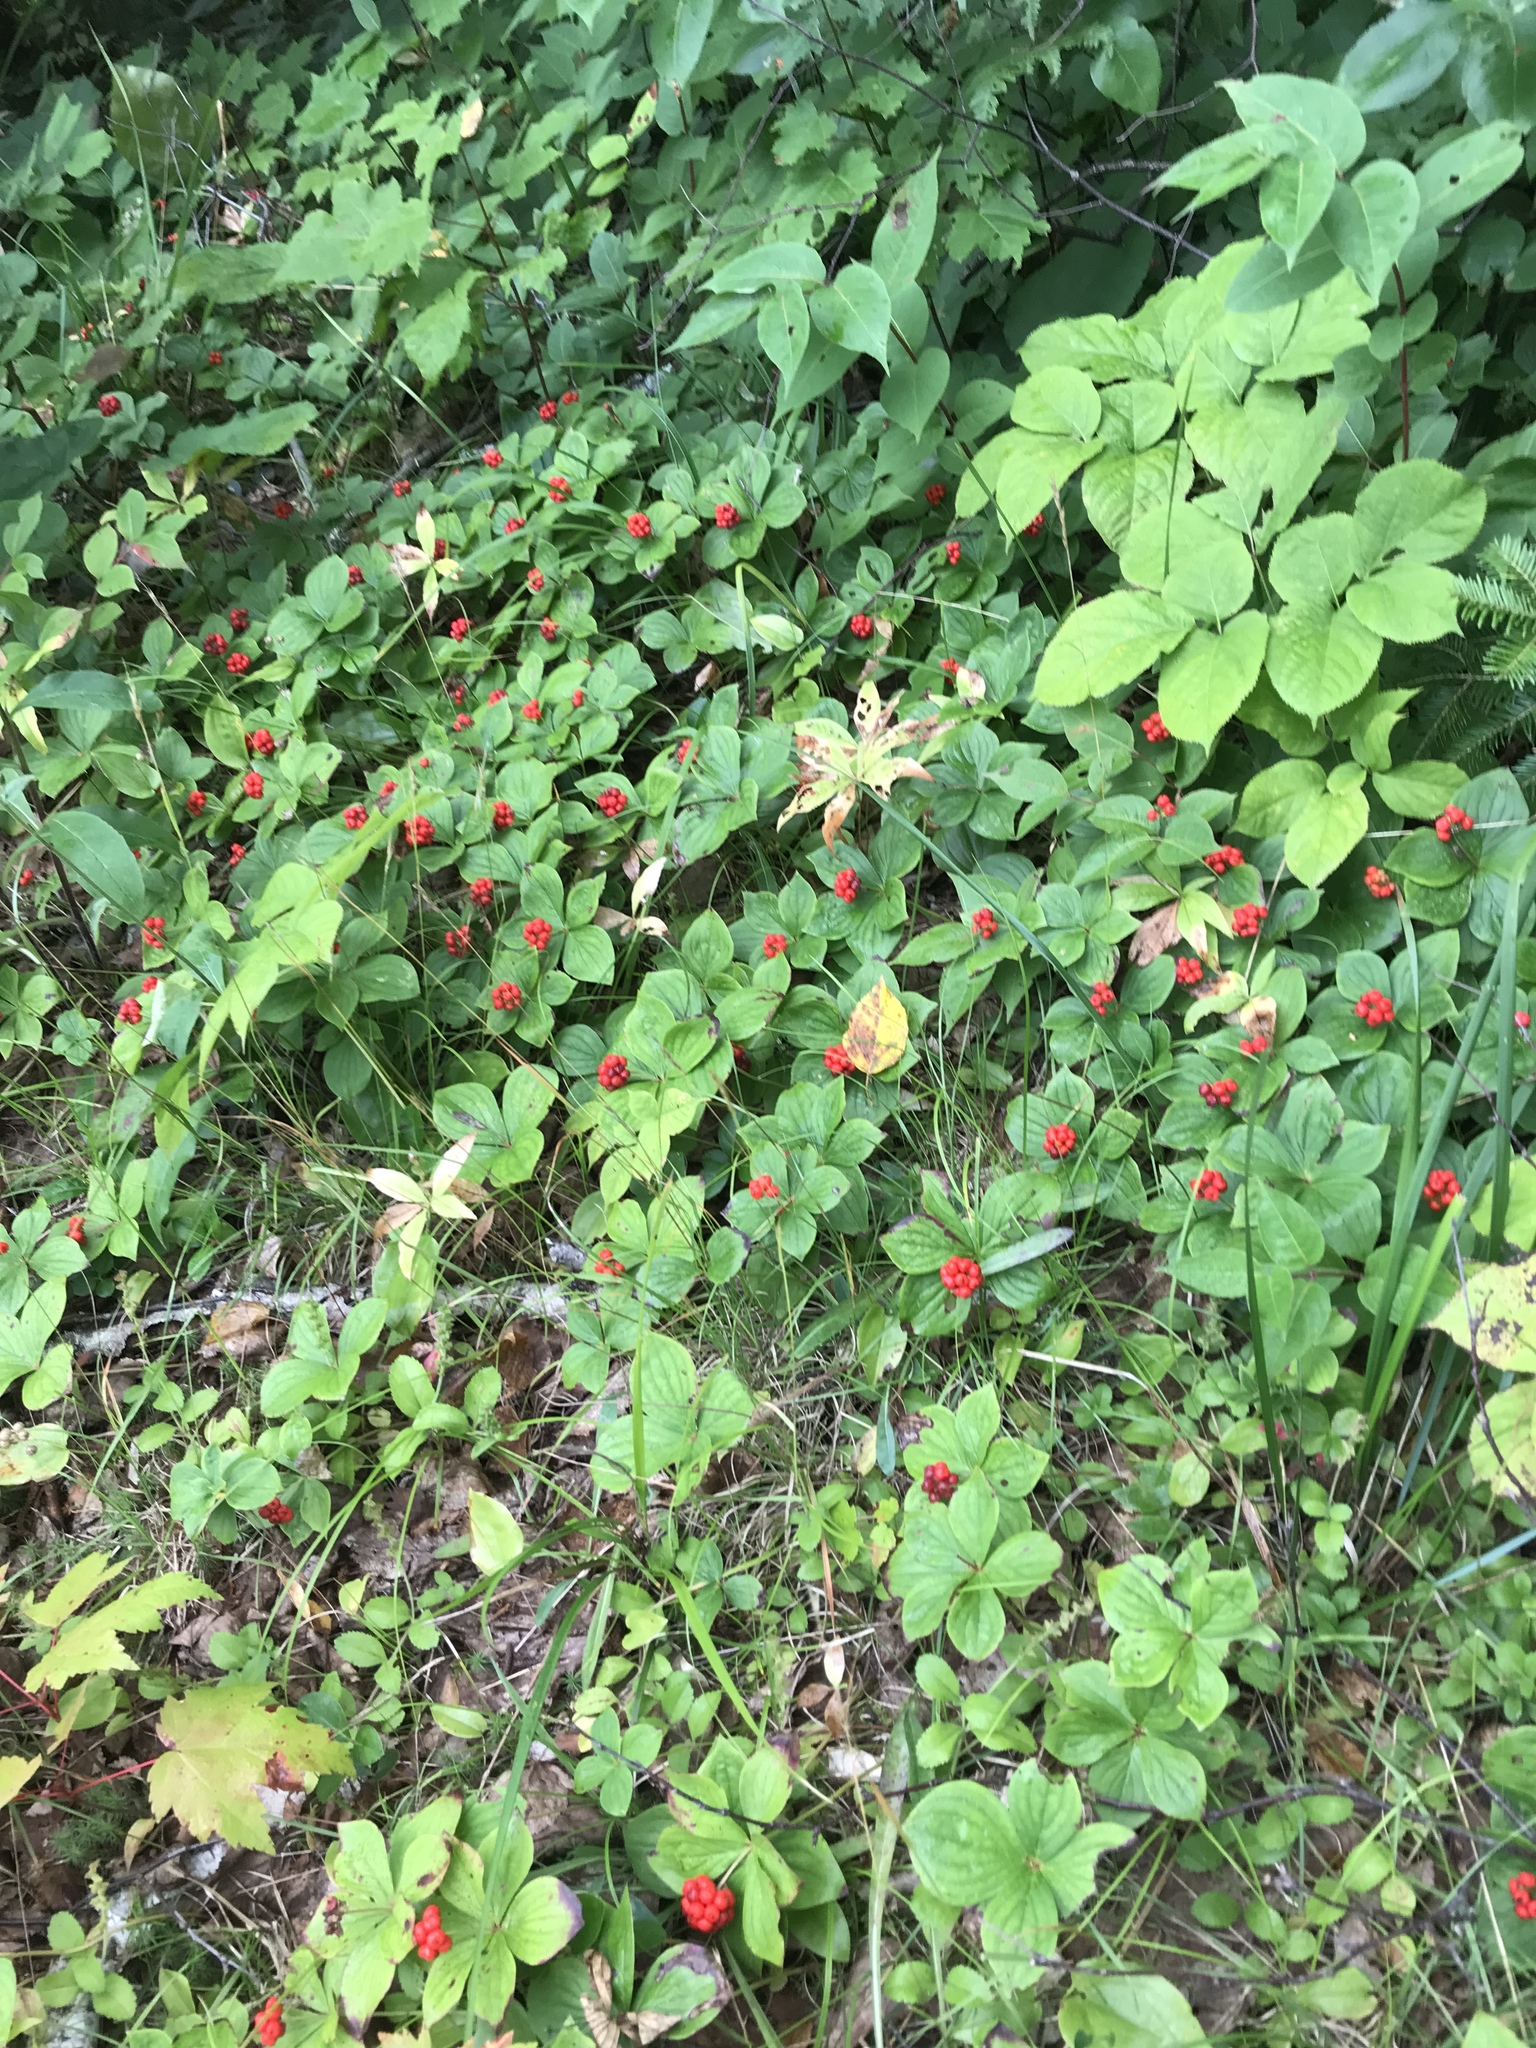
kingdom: Plantae
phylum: Tracheophyta
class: Magnoliopsida
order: Cornales
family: Cornaceae
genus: Cornus
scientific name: Cornus canadensis
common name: Creeping dogwood
